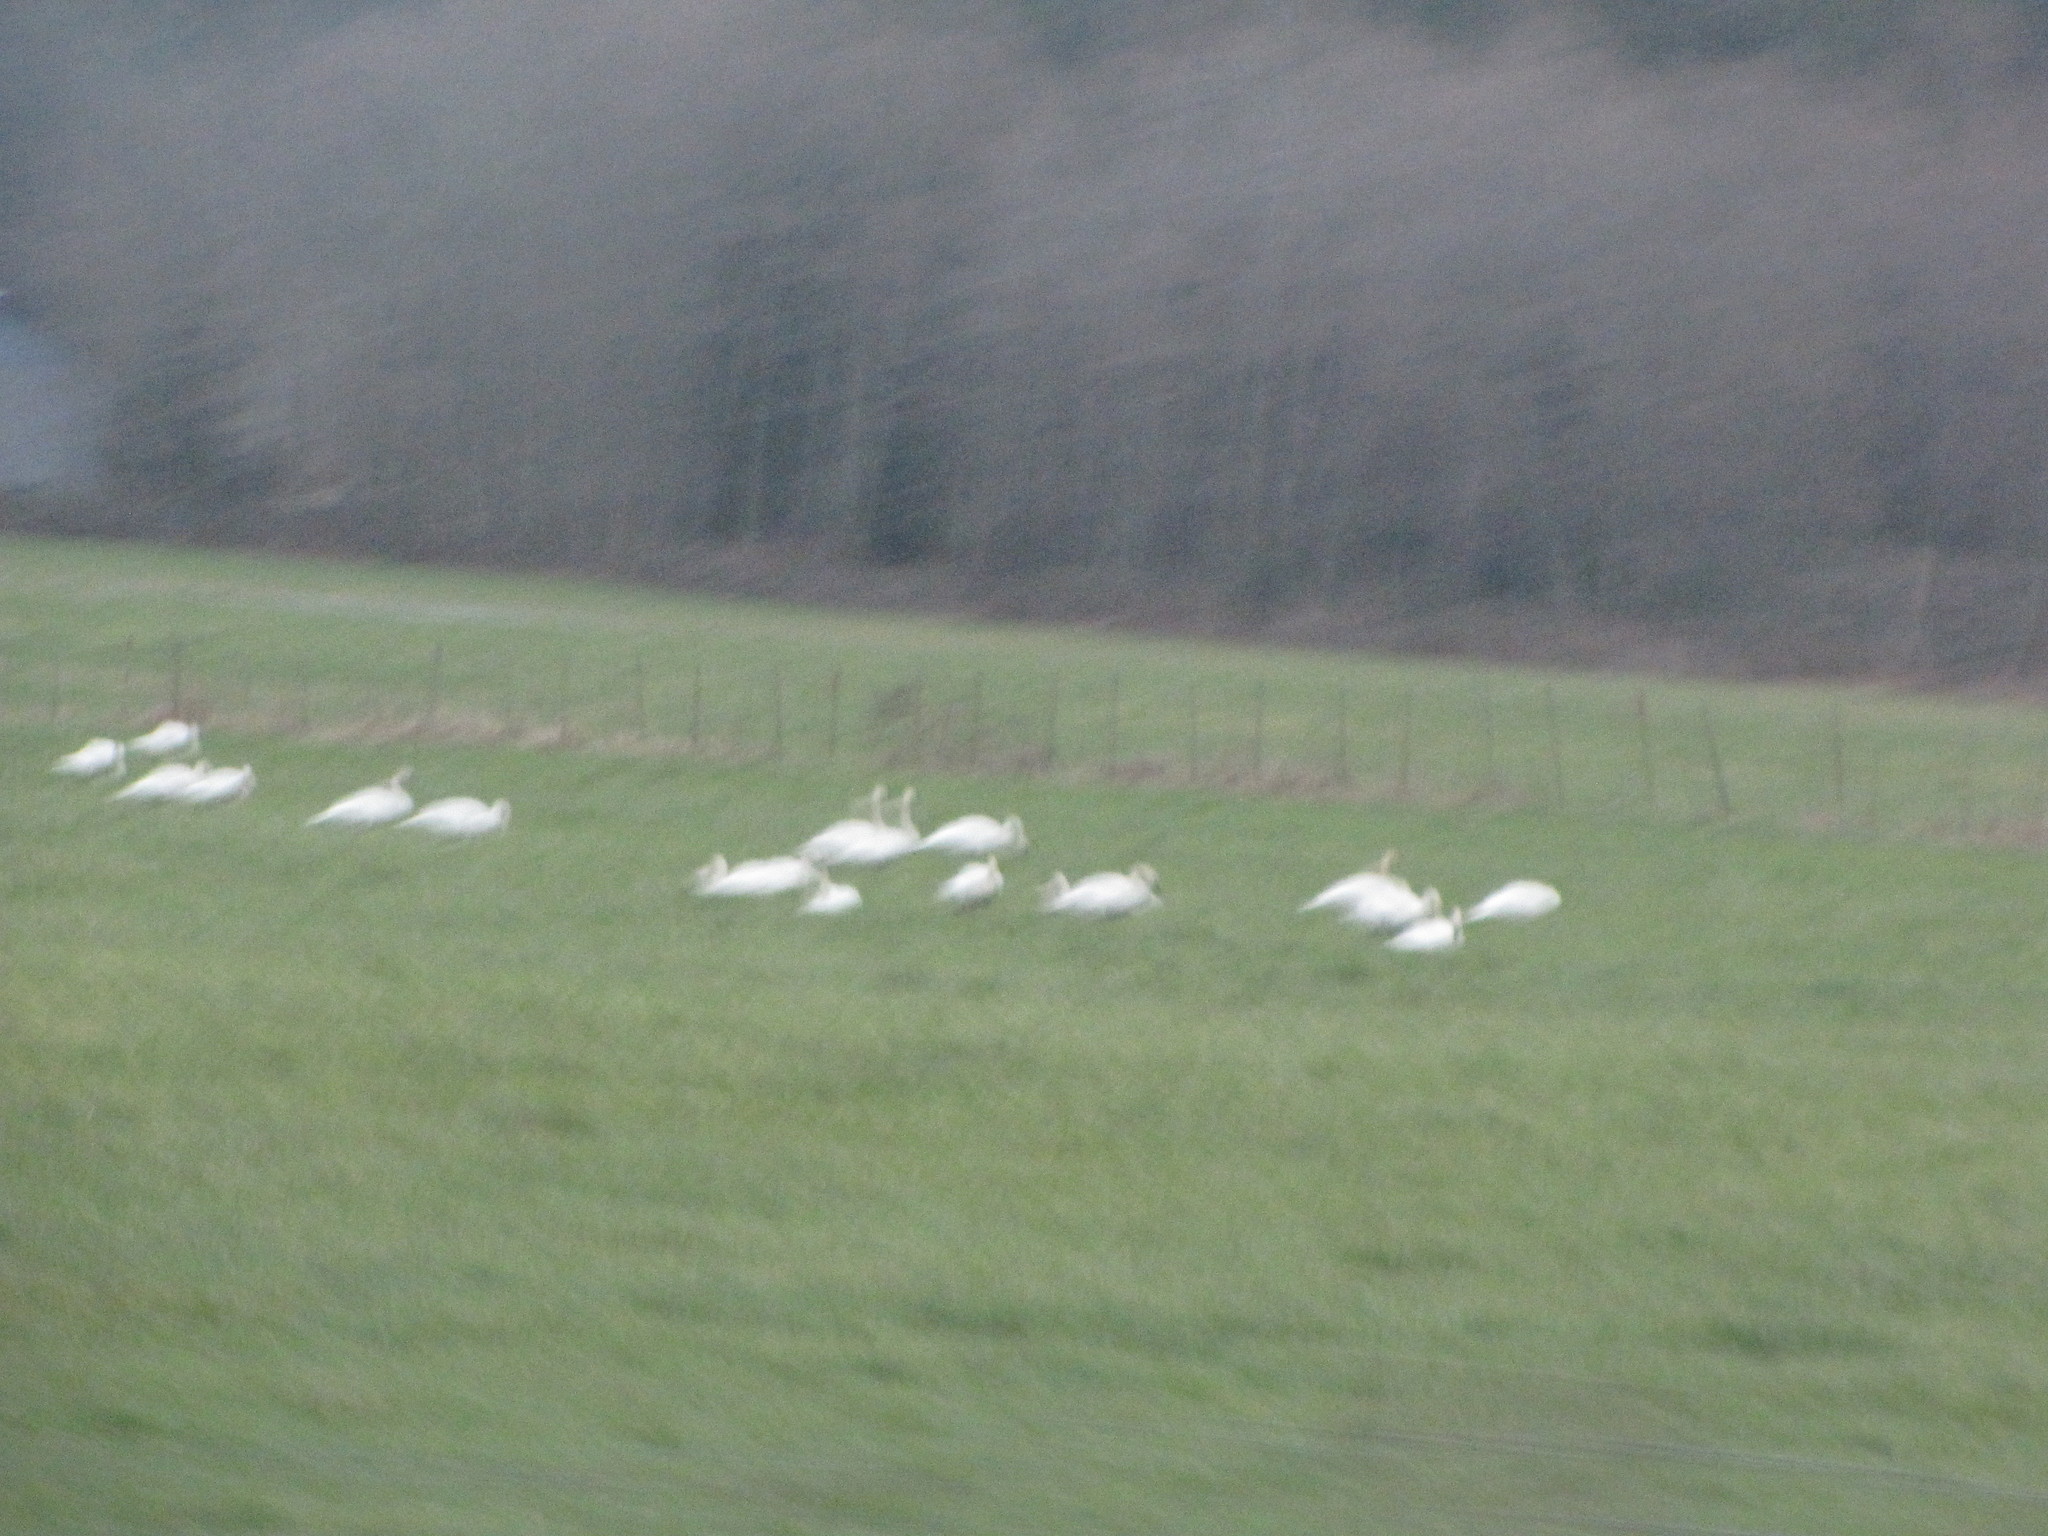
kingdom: Animalia
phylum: Chordata
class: Aves
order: Anseriformes
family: Anatidae
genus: Cygnus
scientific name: Cygnus buccinator
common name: Trumpeter swan
